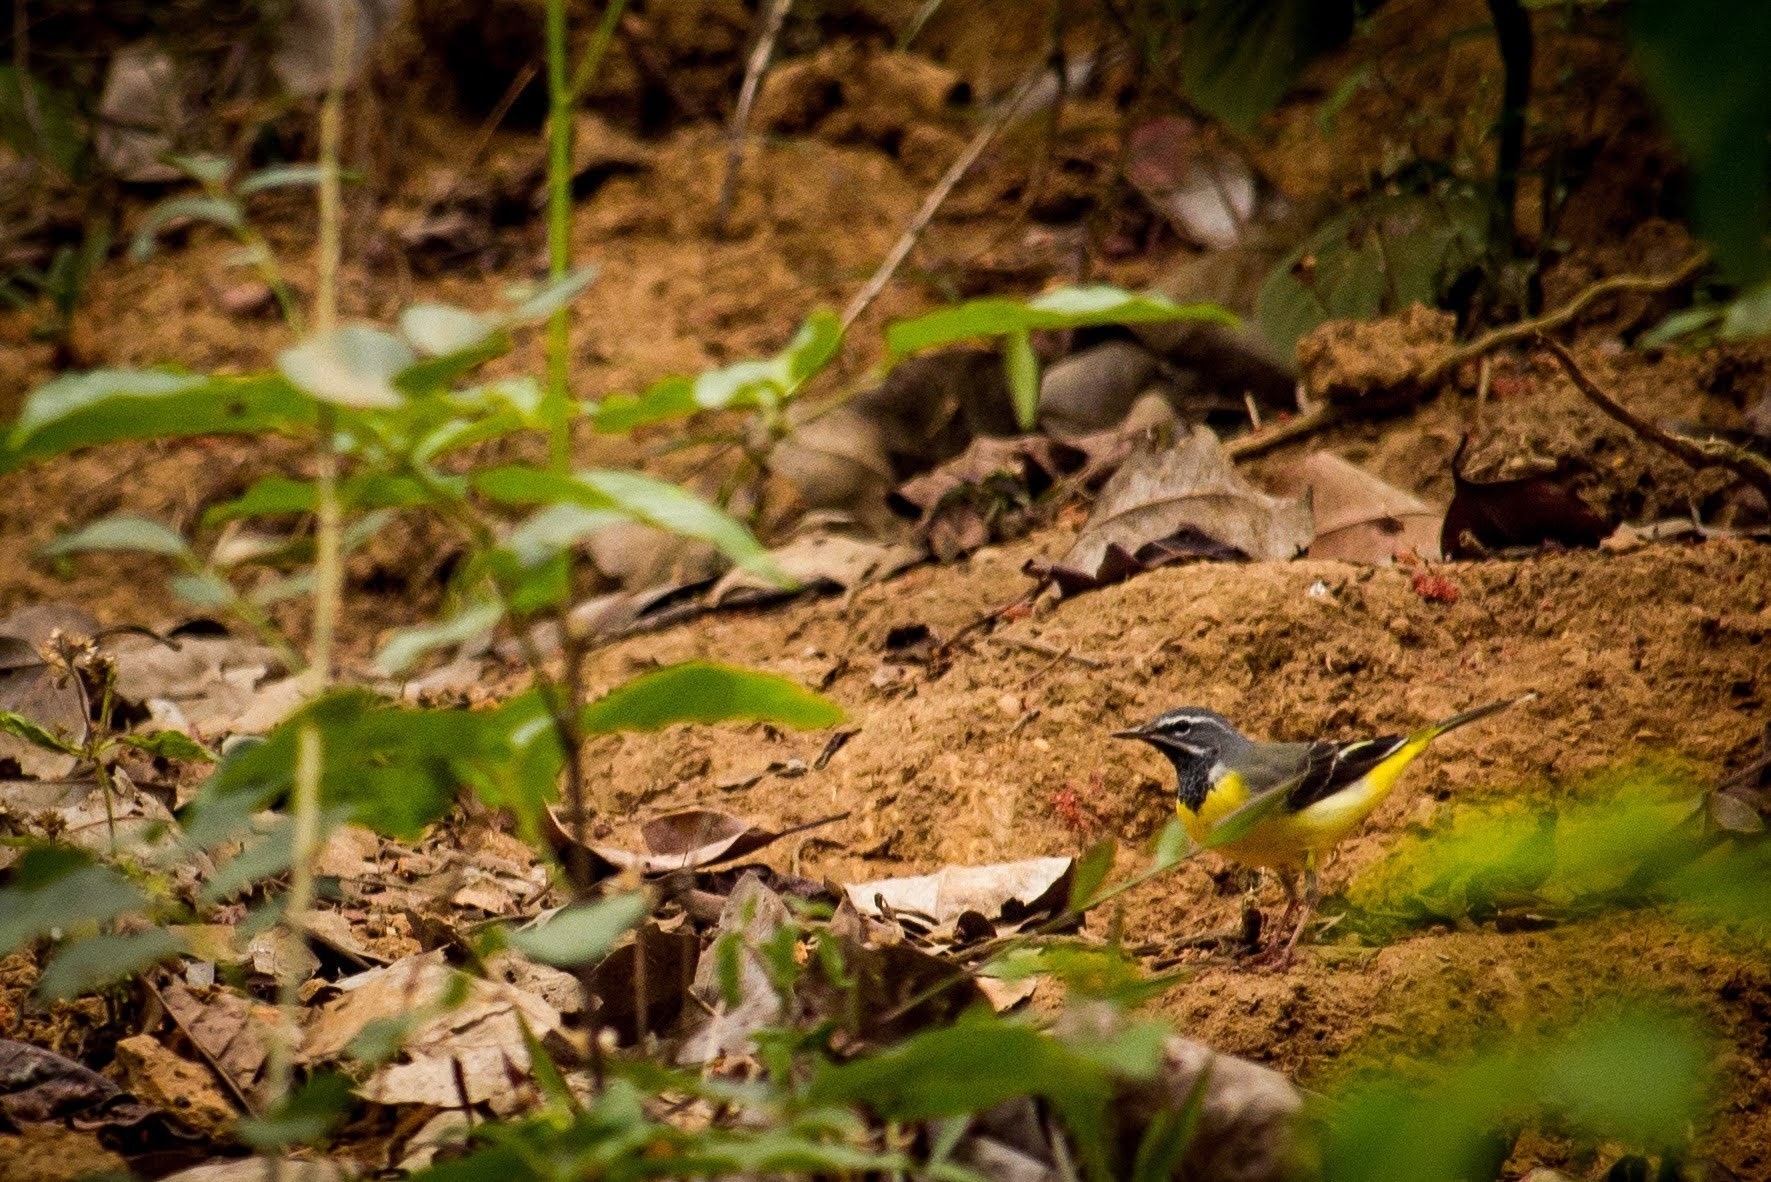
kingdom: Animalia
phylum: Chordata
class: Aves
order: Passeriformes
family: Motacillidae
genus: Motacilla
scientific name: Motacilla cinerea
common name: Grey wagtail
